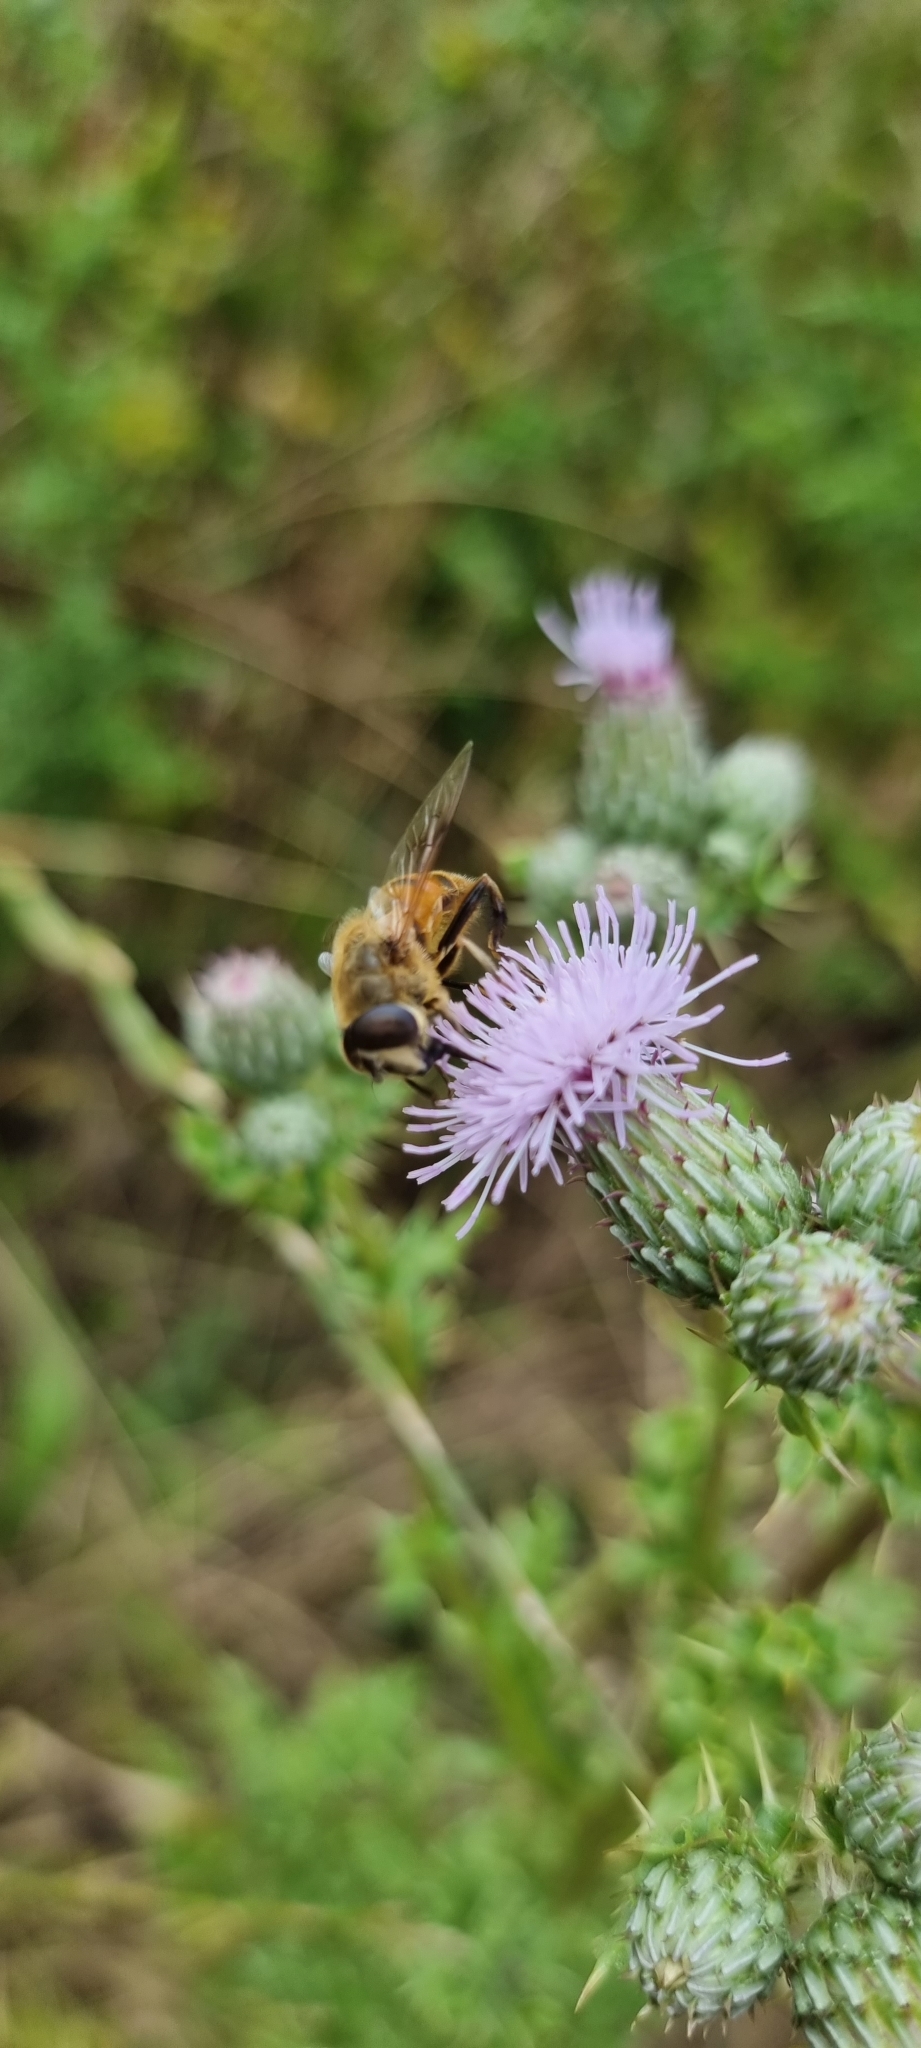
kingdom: Animalia
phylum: Arthropoda
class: Insecta
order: Diptera
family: Syrphidae
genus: Eristalis
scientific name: Eristalis tenax
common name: Drone fly
